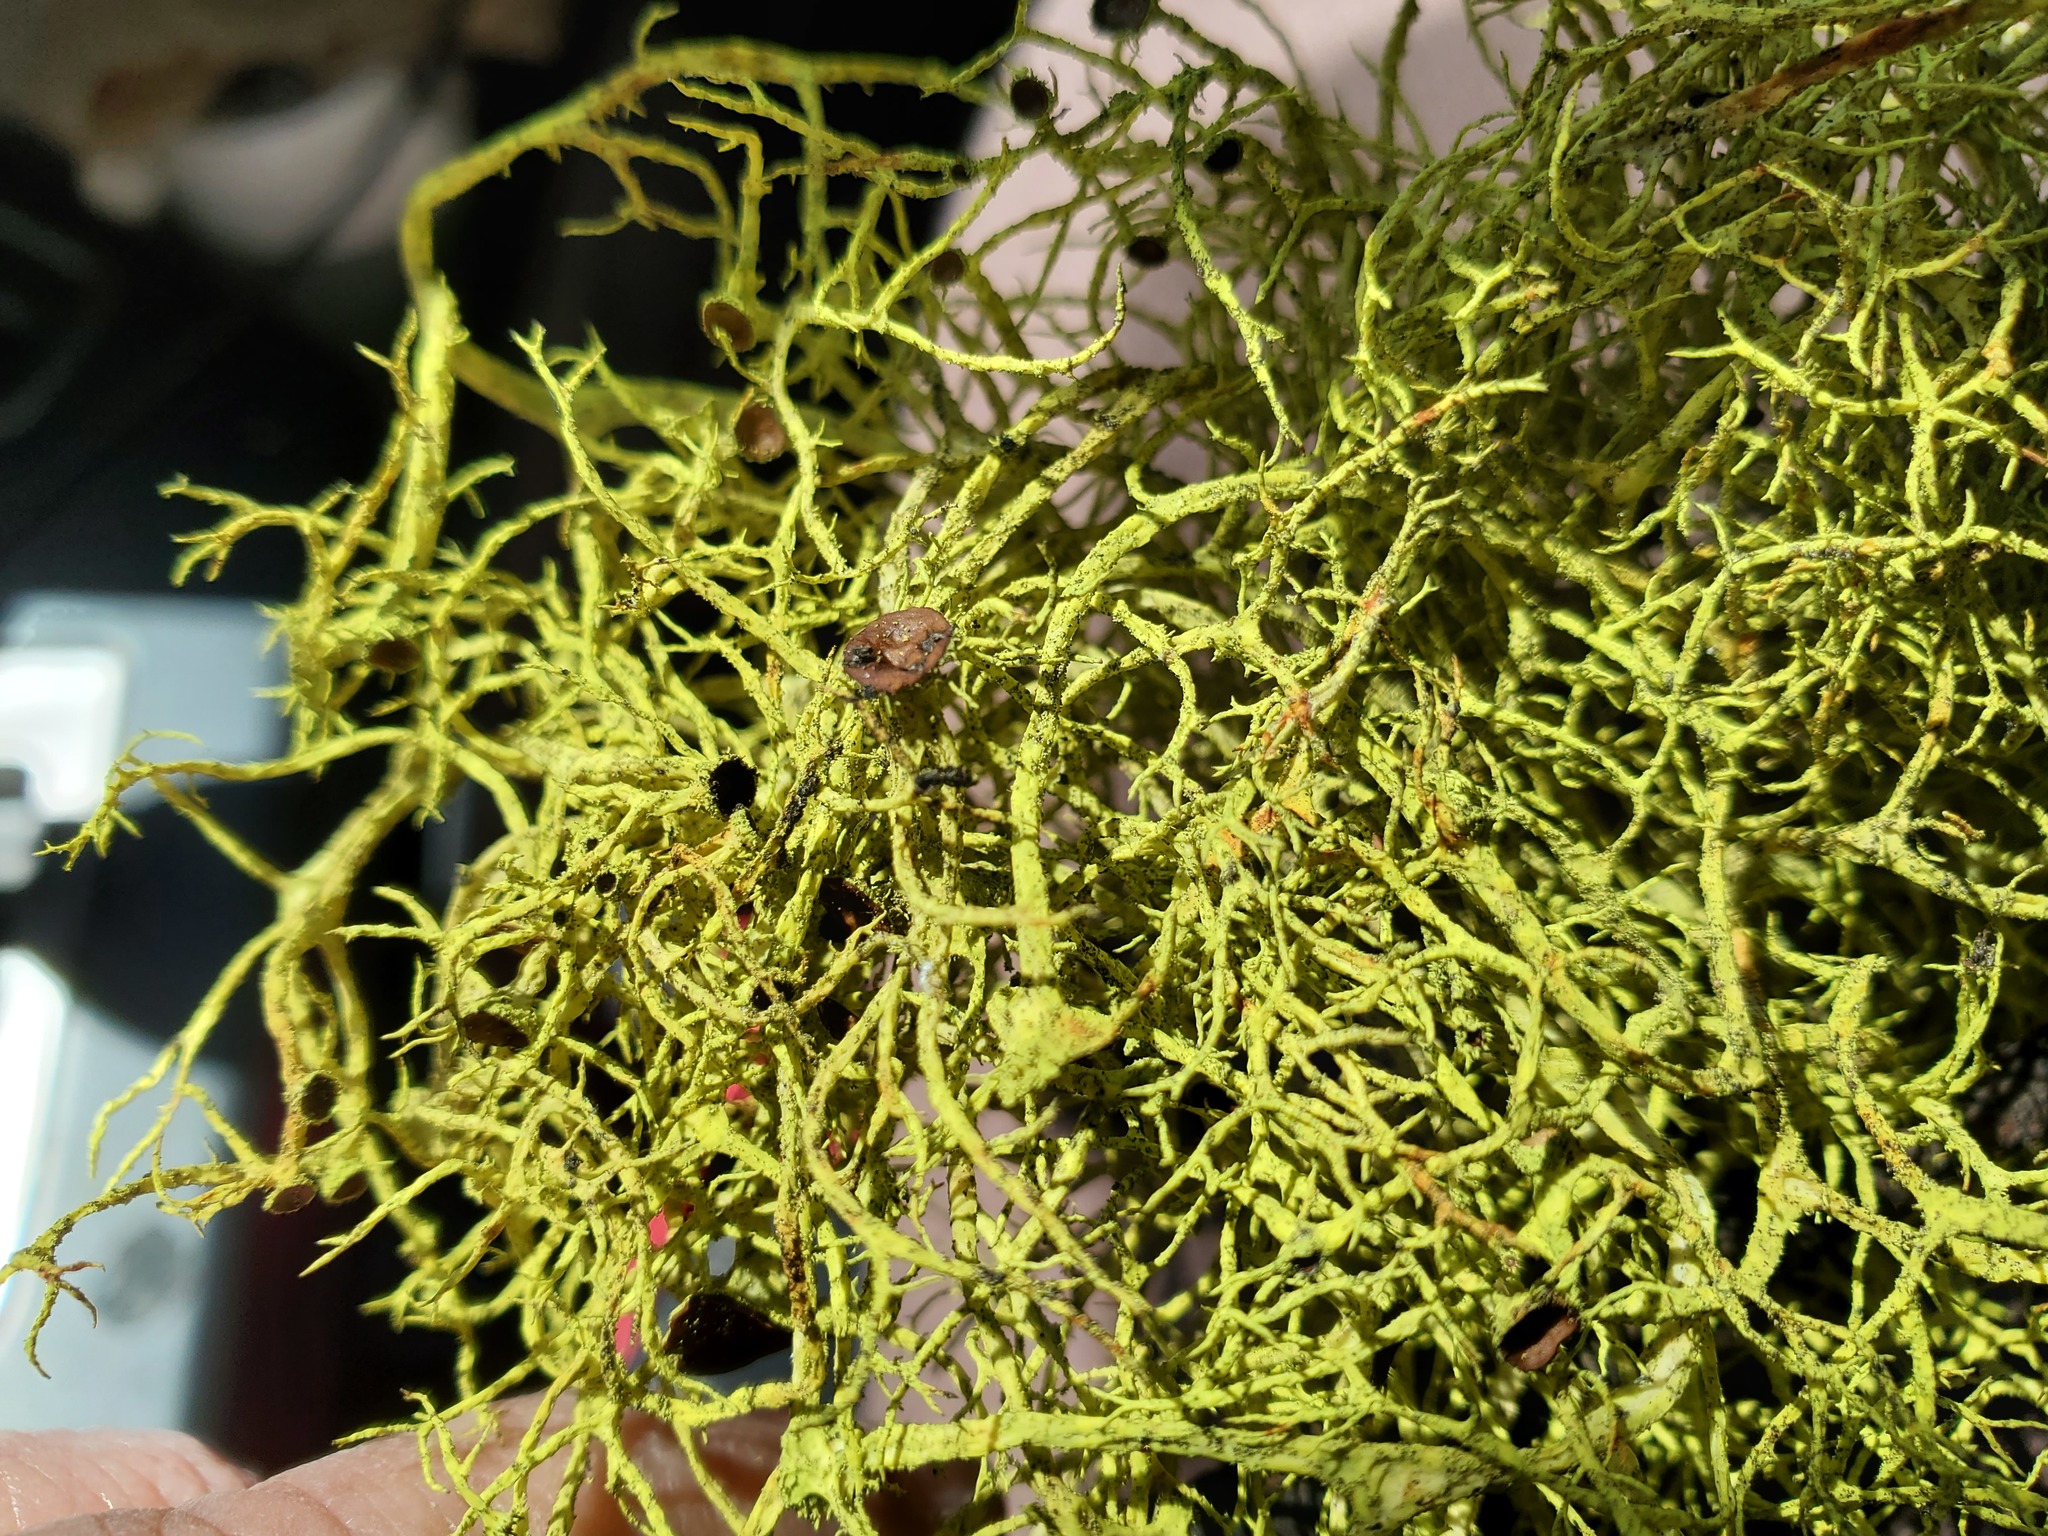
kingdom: Fungi
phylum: Ascomycota
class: Lecanoromycetes
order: Lecanorales
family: Parmeliaceae
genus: Letharia
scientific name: Letharia columbiana
